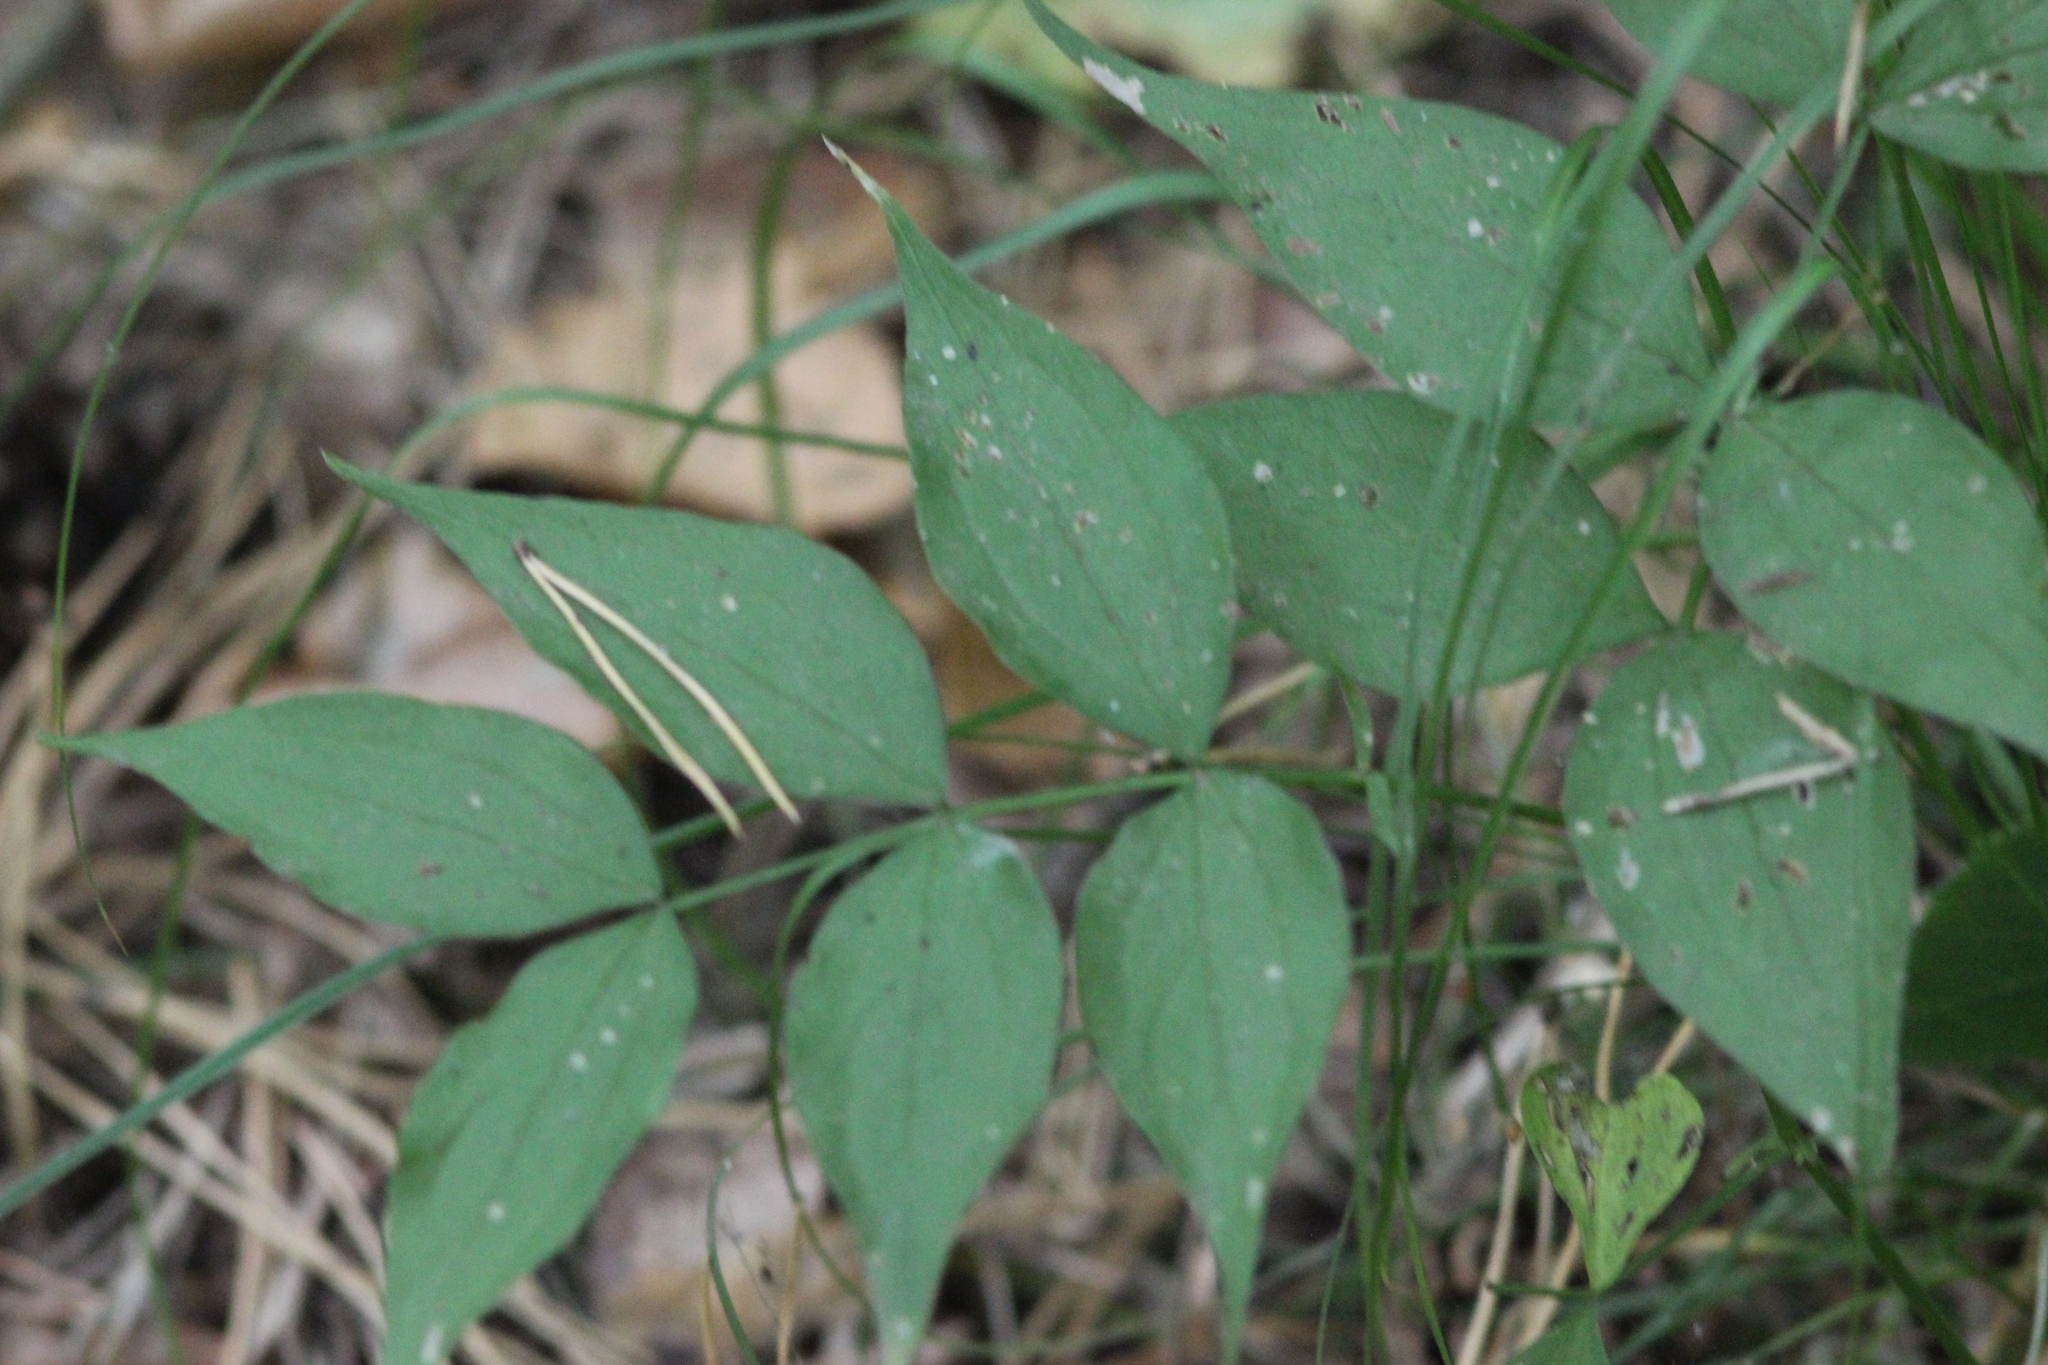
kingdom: Plantae
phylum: Tracheophyta
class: Magnoliopsida
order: Fabales
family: Fabaceae
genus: Lathyrus
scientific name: Lathyrus vernus
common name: Spring pea
